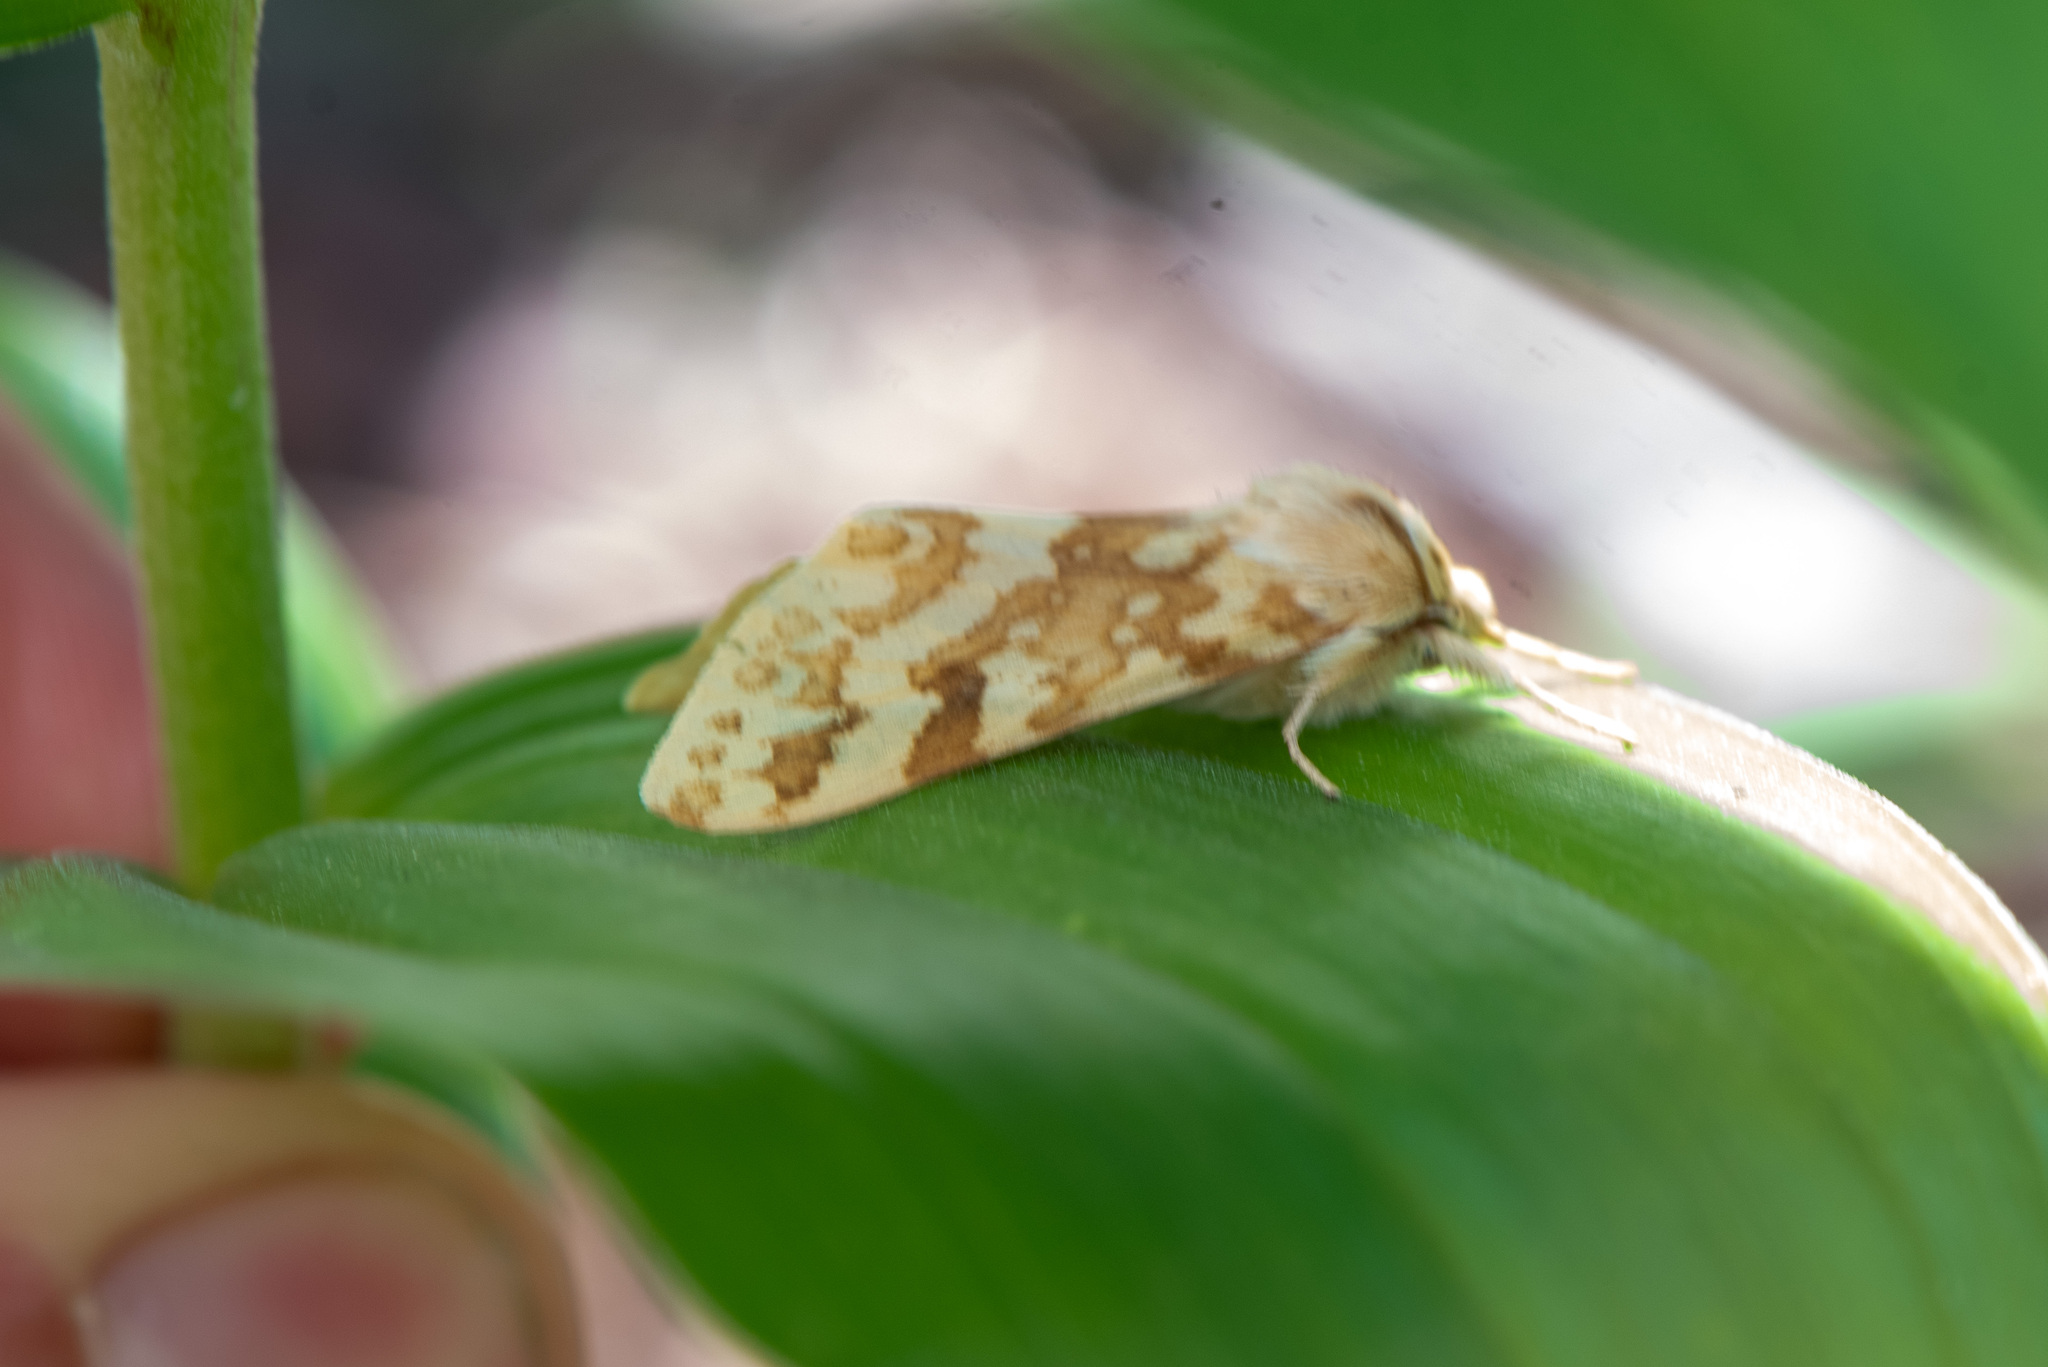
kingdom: Animalia
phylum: Arthropoda
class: Insecta
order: Lepidoptera
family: Erebidae
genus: Lophocampa
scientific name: Lophocampa maculata
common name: Spotted tussock moth
